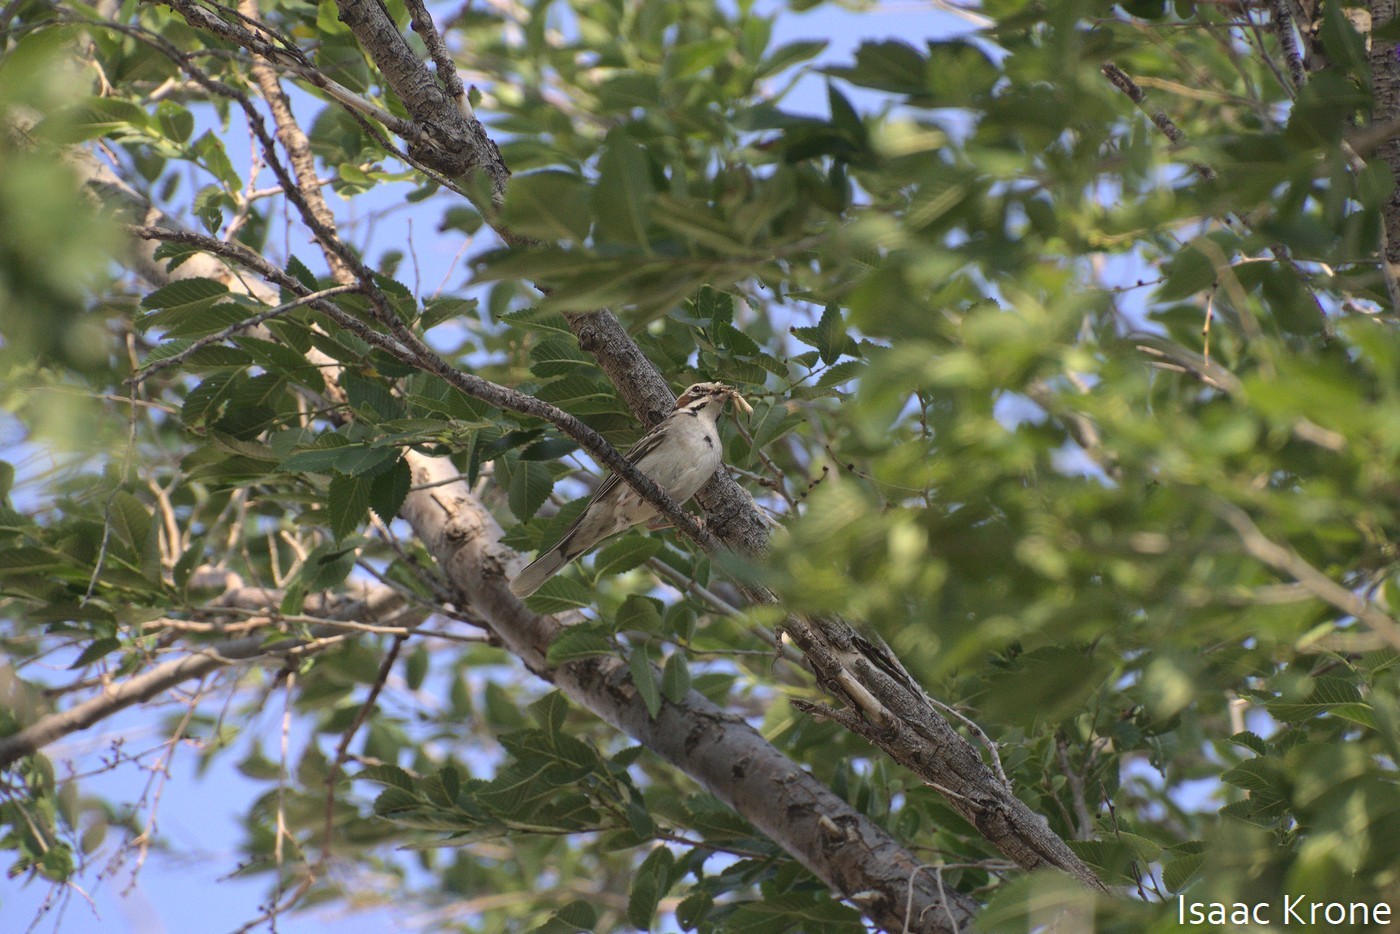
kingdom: Animalia
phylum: Chordata
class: Aves
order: Passeriformes
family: Passerellidae
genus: Chondestes
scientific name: Chondestes grammacus
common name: Lark sparrow
